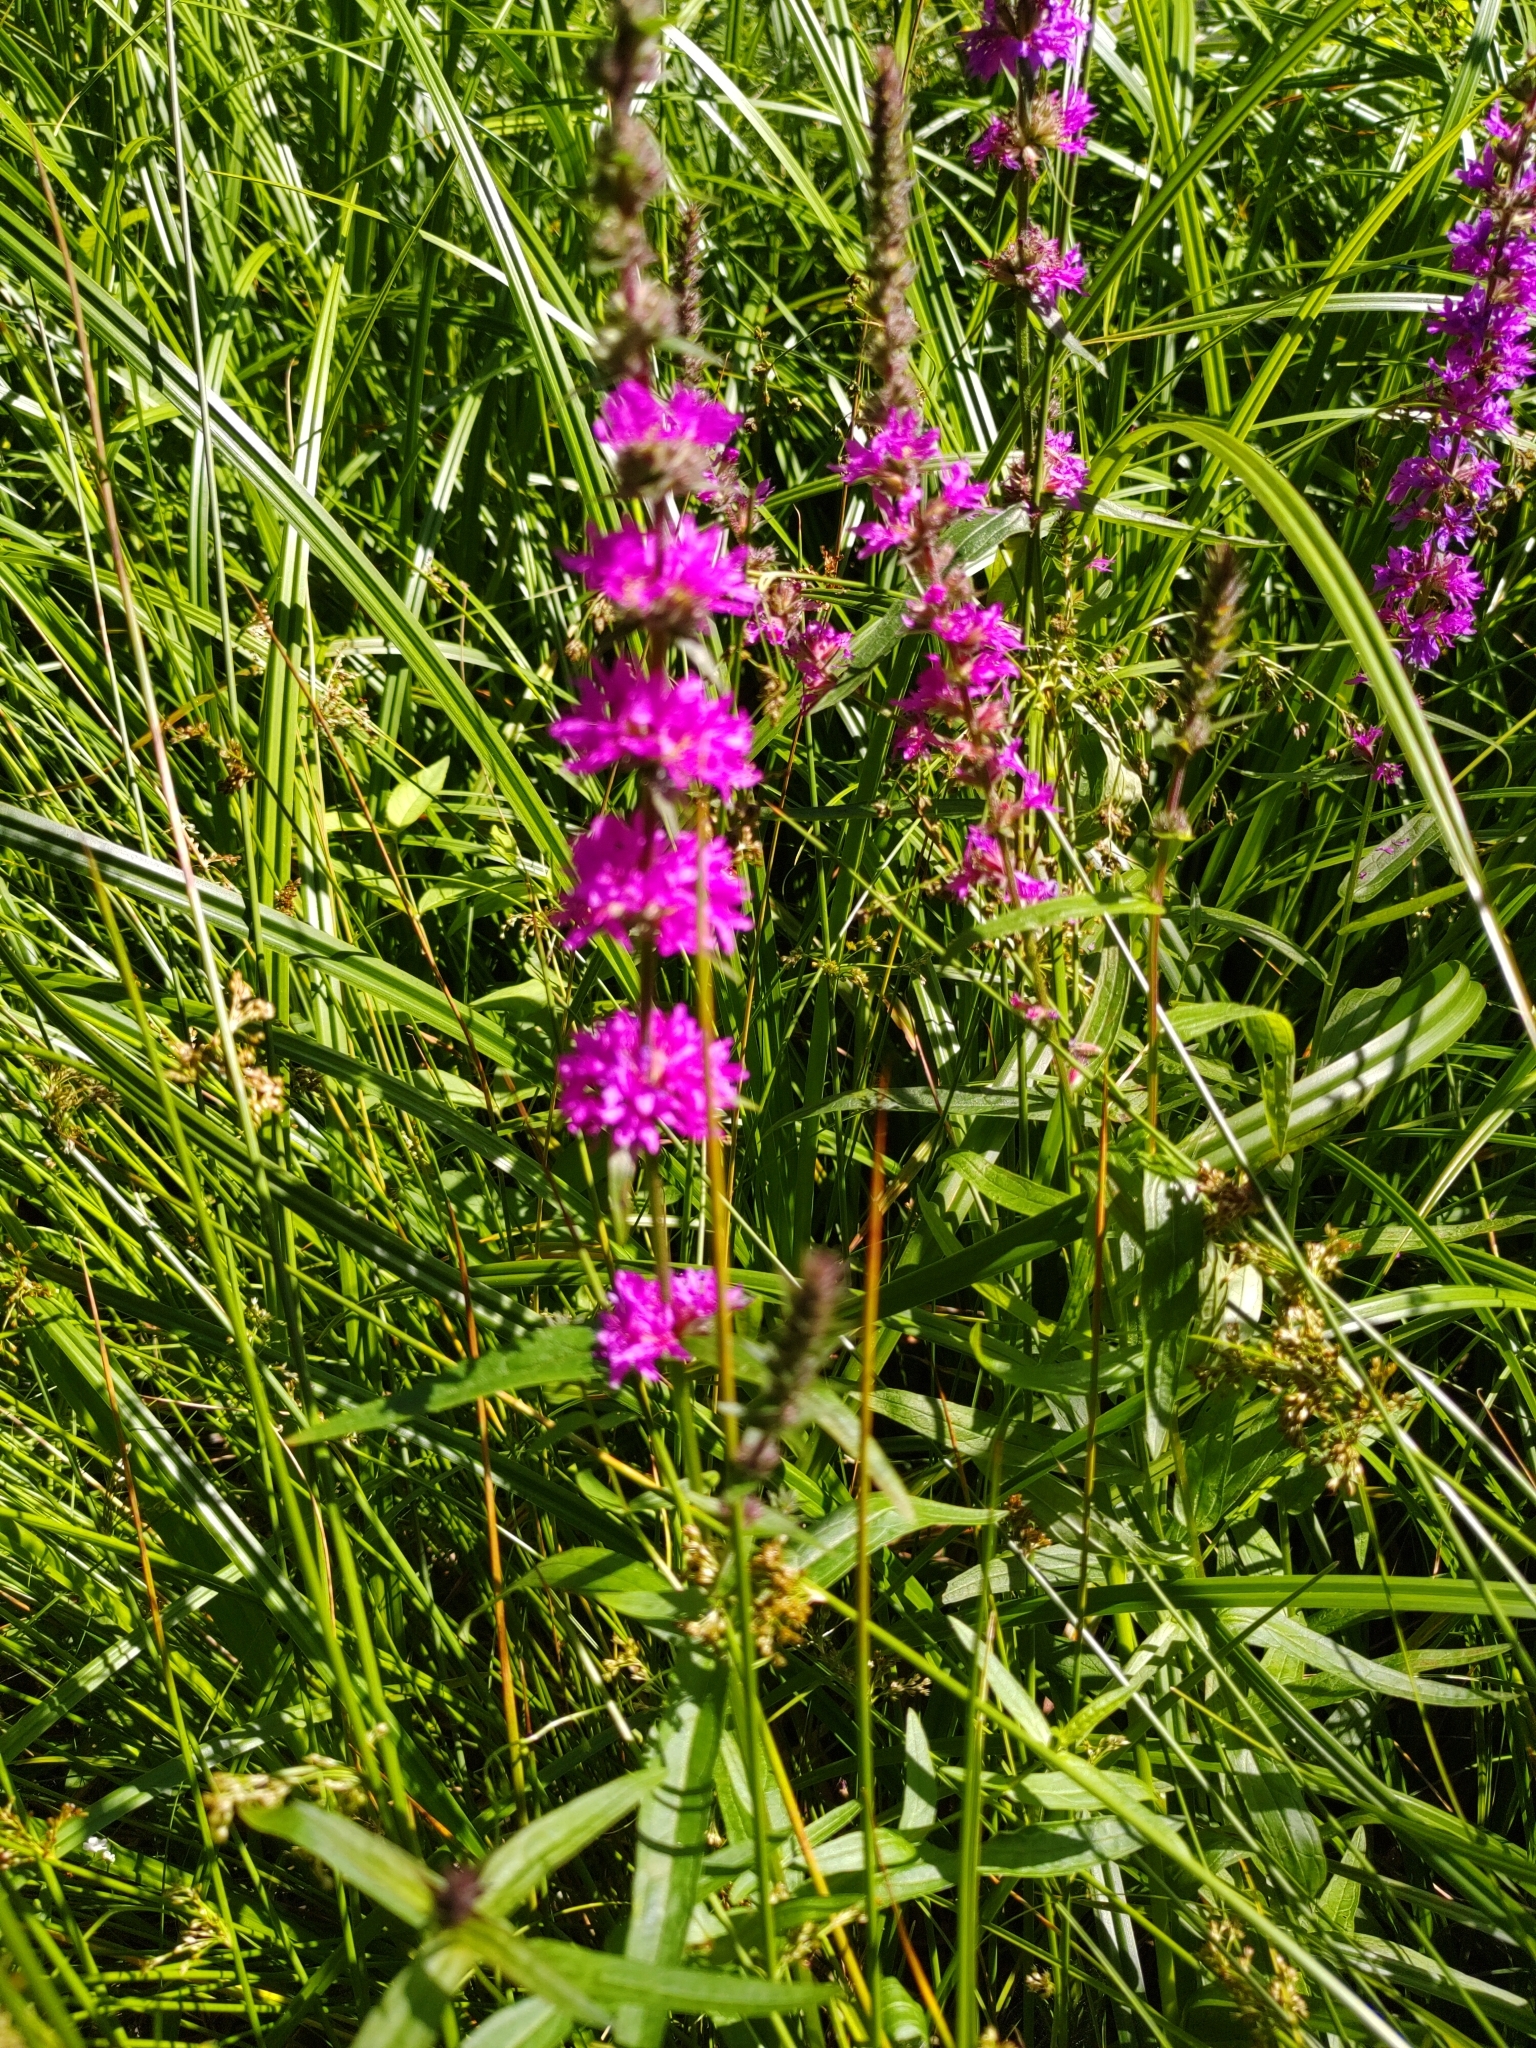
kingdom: Plantae
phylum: Tracheophyta
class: Magnoliopsida
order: Myrtales
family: Lythraceae
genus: Lythrum
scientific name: Lythrum salicaria
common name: Purple loosestrife
